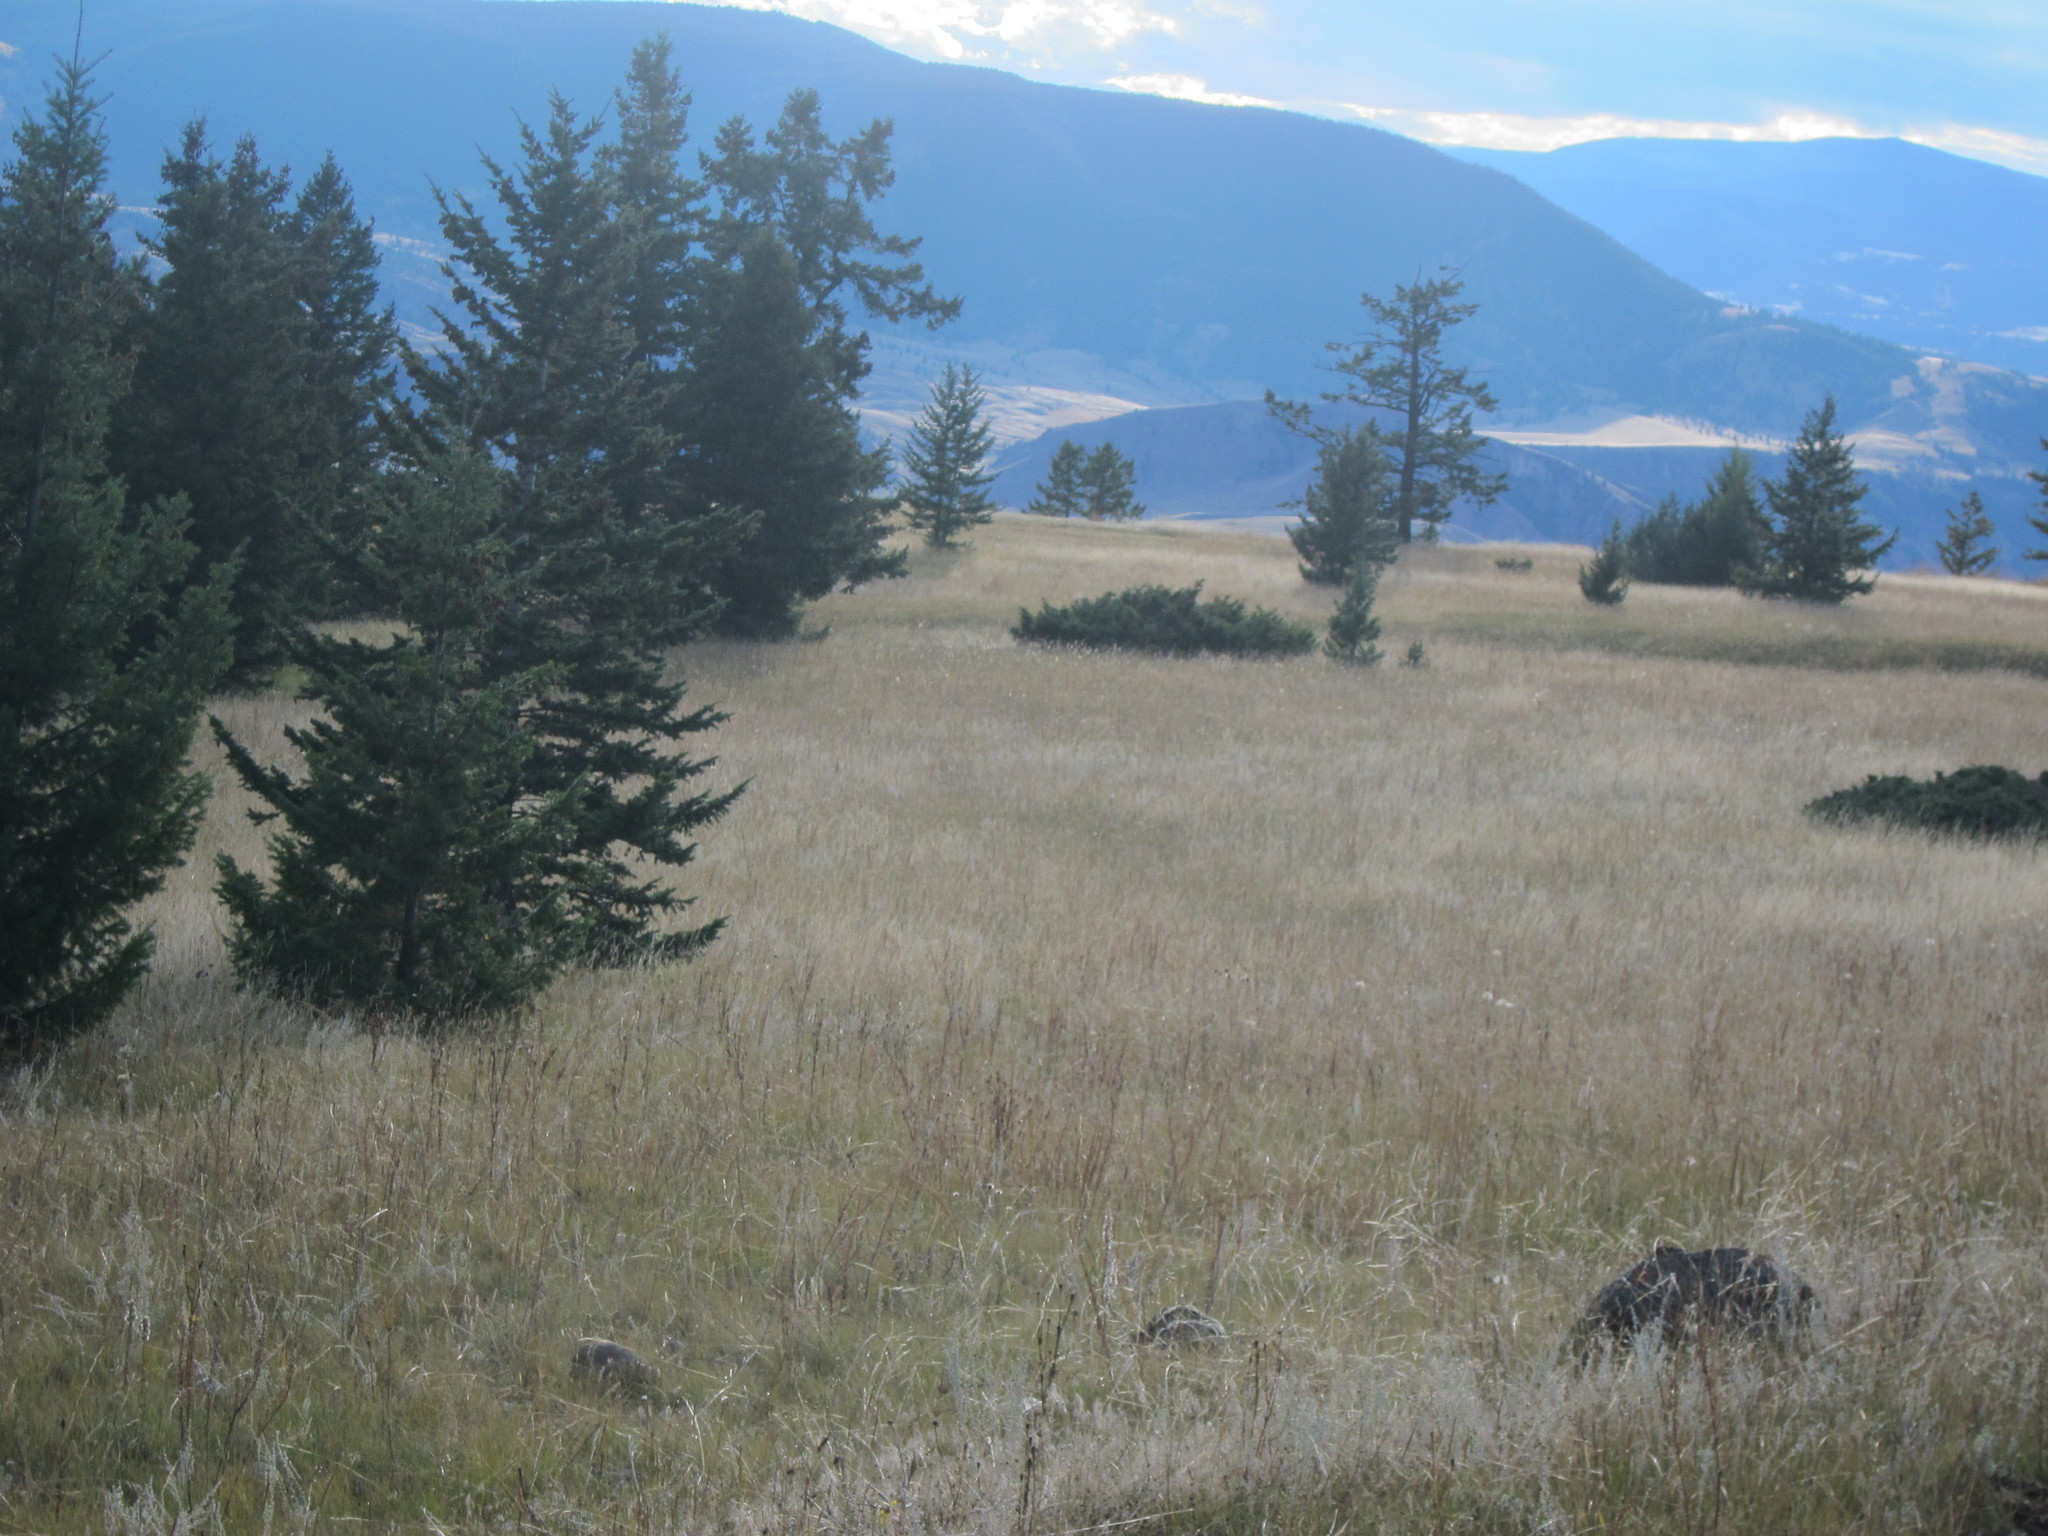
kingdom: Plantae
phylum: Tracheophyta
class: Pinopsida
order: Pinales
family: Pinaceae
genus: Pseudotsuga
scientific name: Pseudotsuga menziesii
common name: Douglas fir
